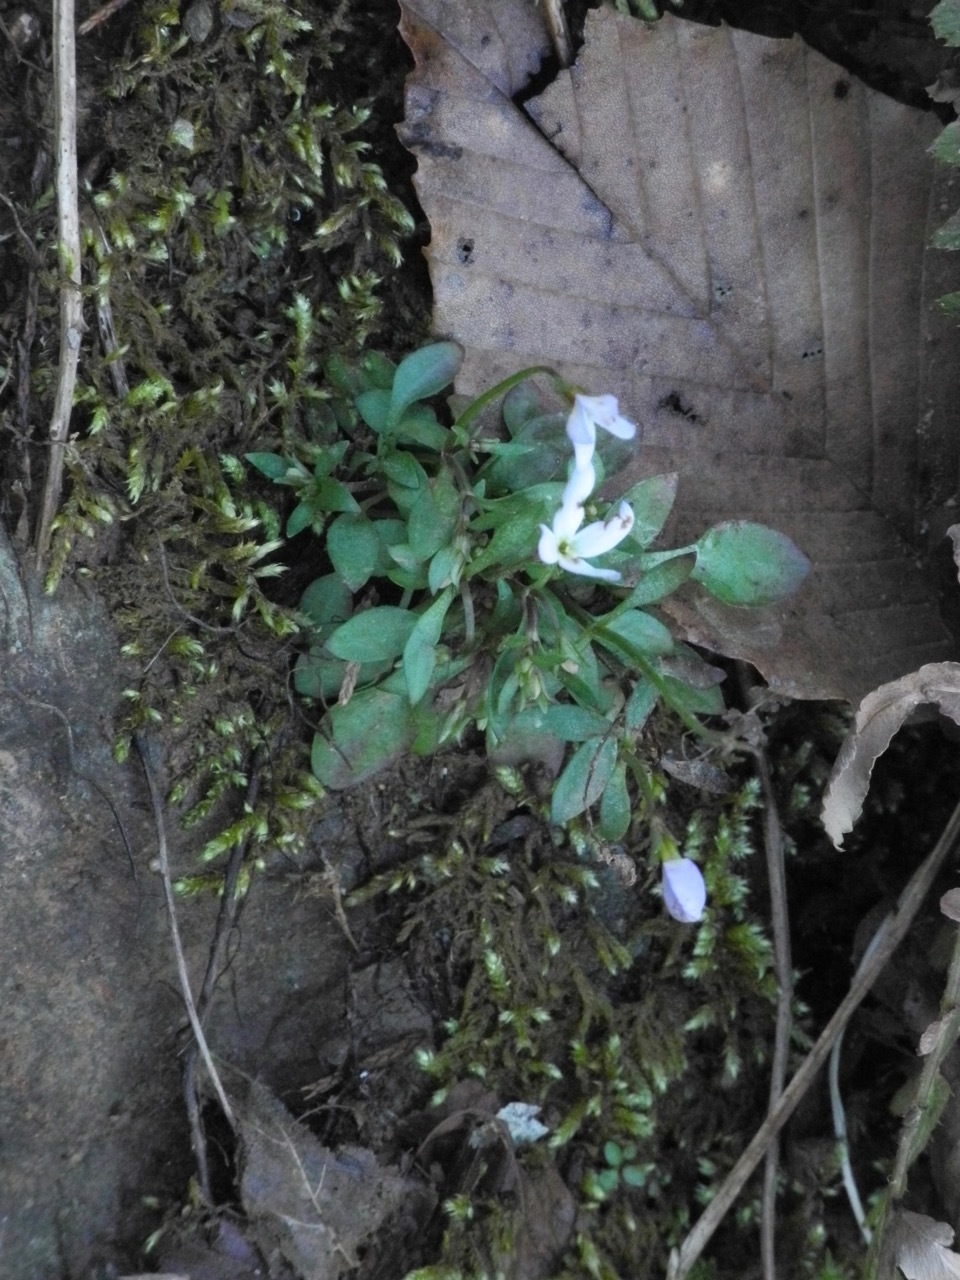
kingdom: Plantae
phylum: Tracheophyta
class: Magnoliopsida
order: Gentianales
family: Rubiaceae
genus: Houstonia
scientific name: Houstonia caerulea
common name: Bluets
